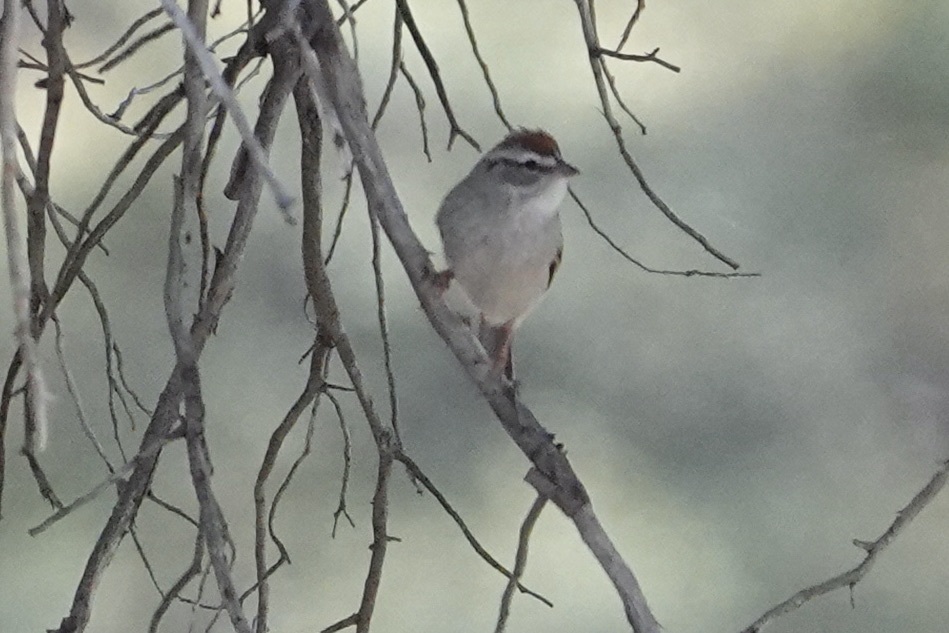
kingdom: Animalia
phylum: Chordata
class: Aves
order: Passeriformes
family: Passerellidae
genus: Spizella
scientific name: Spizella passerina
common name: Chipping sparrow
